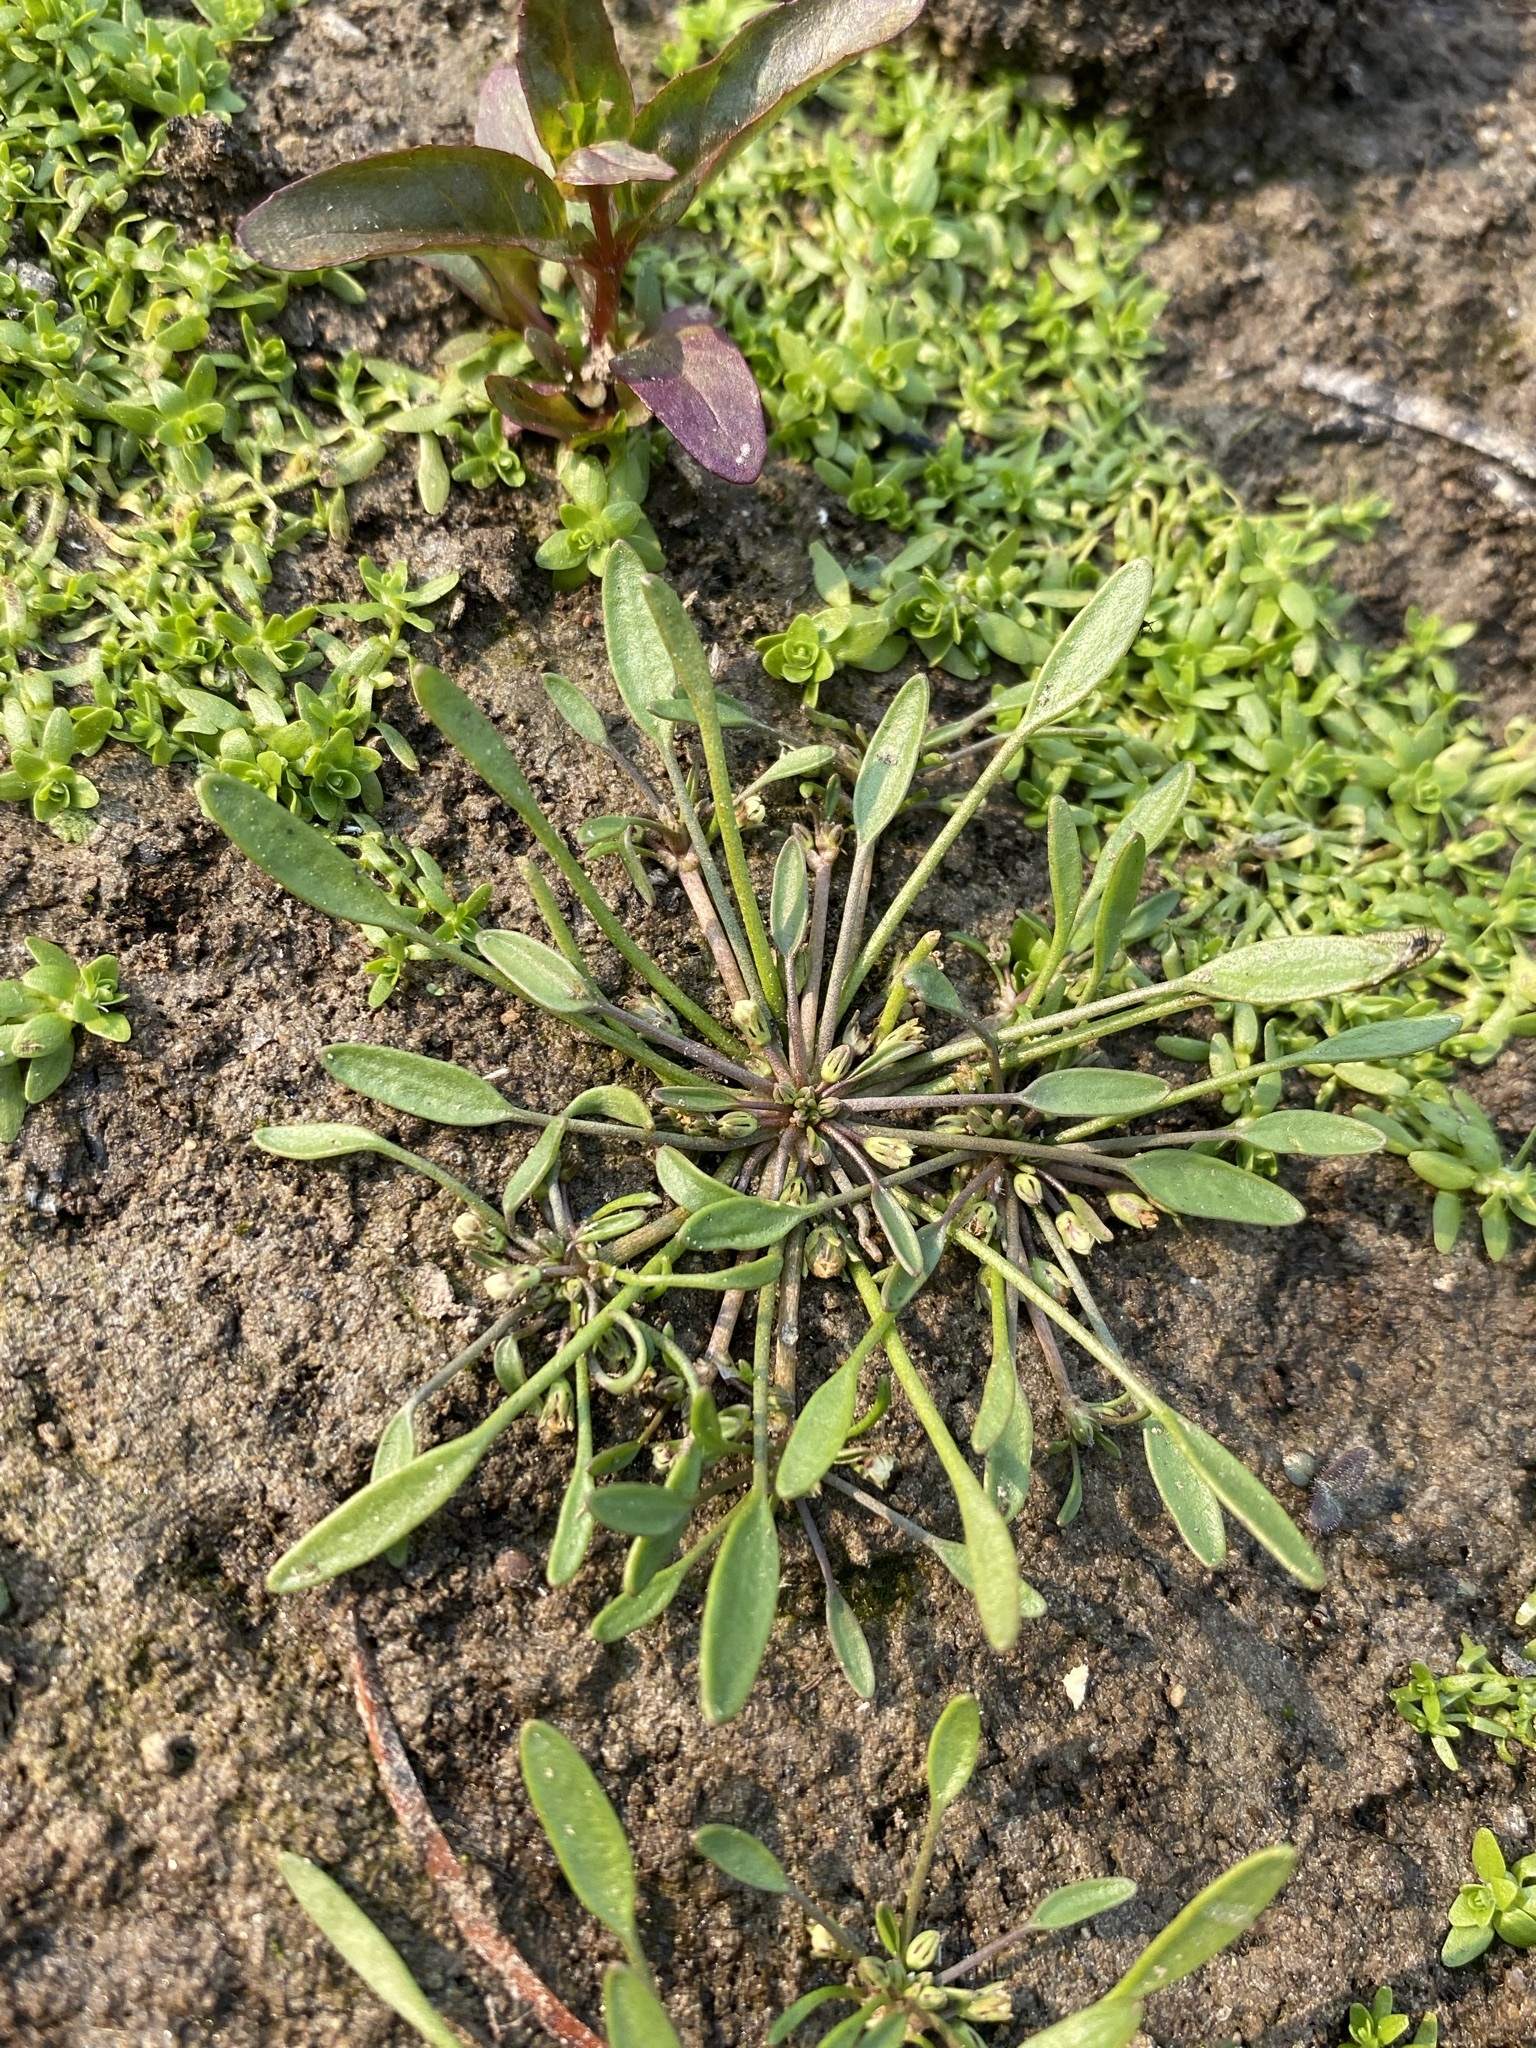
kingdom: Plantae
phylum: Tracheophyta
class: Magnoliopsida
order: Lamiales
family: Scrophulariaceae
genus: Limosella
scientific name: Limosella aquatica
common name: Mudwort
